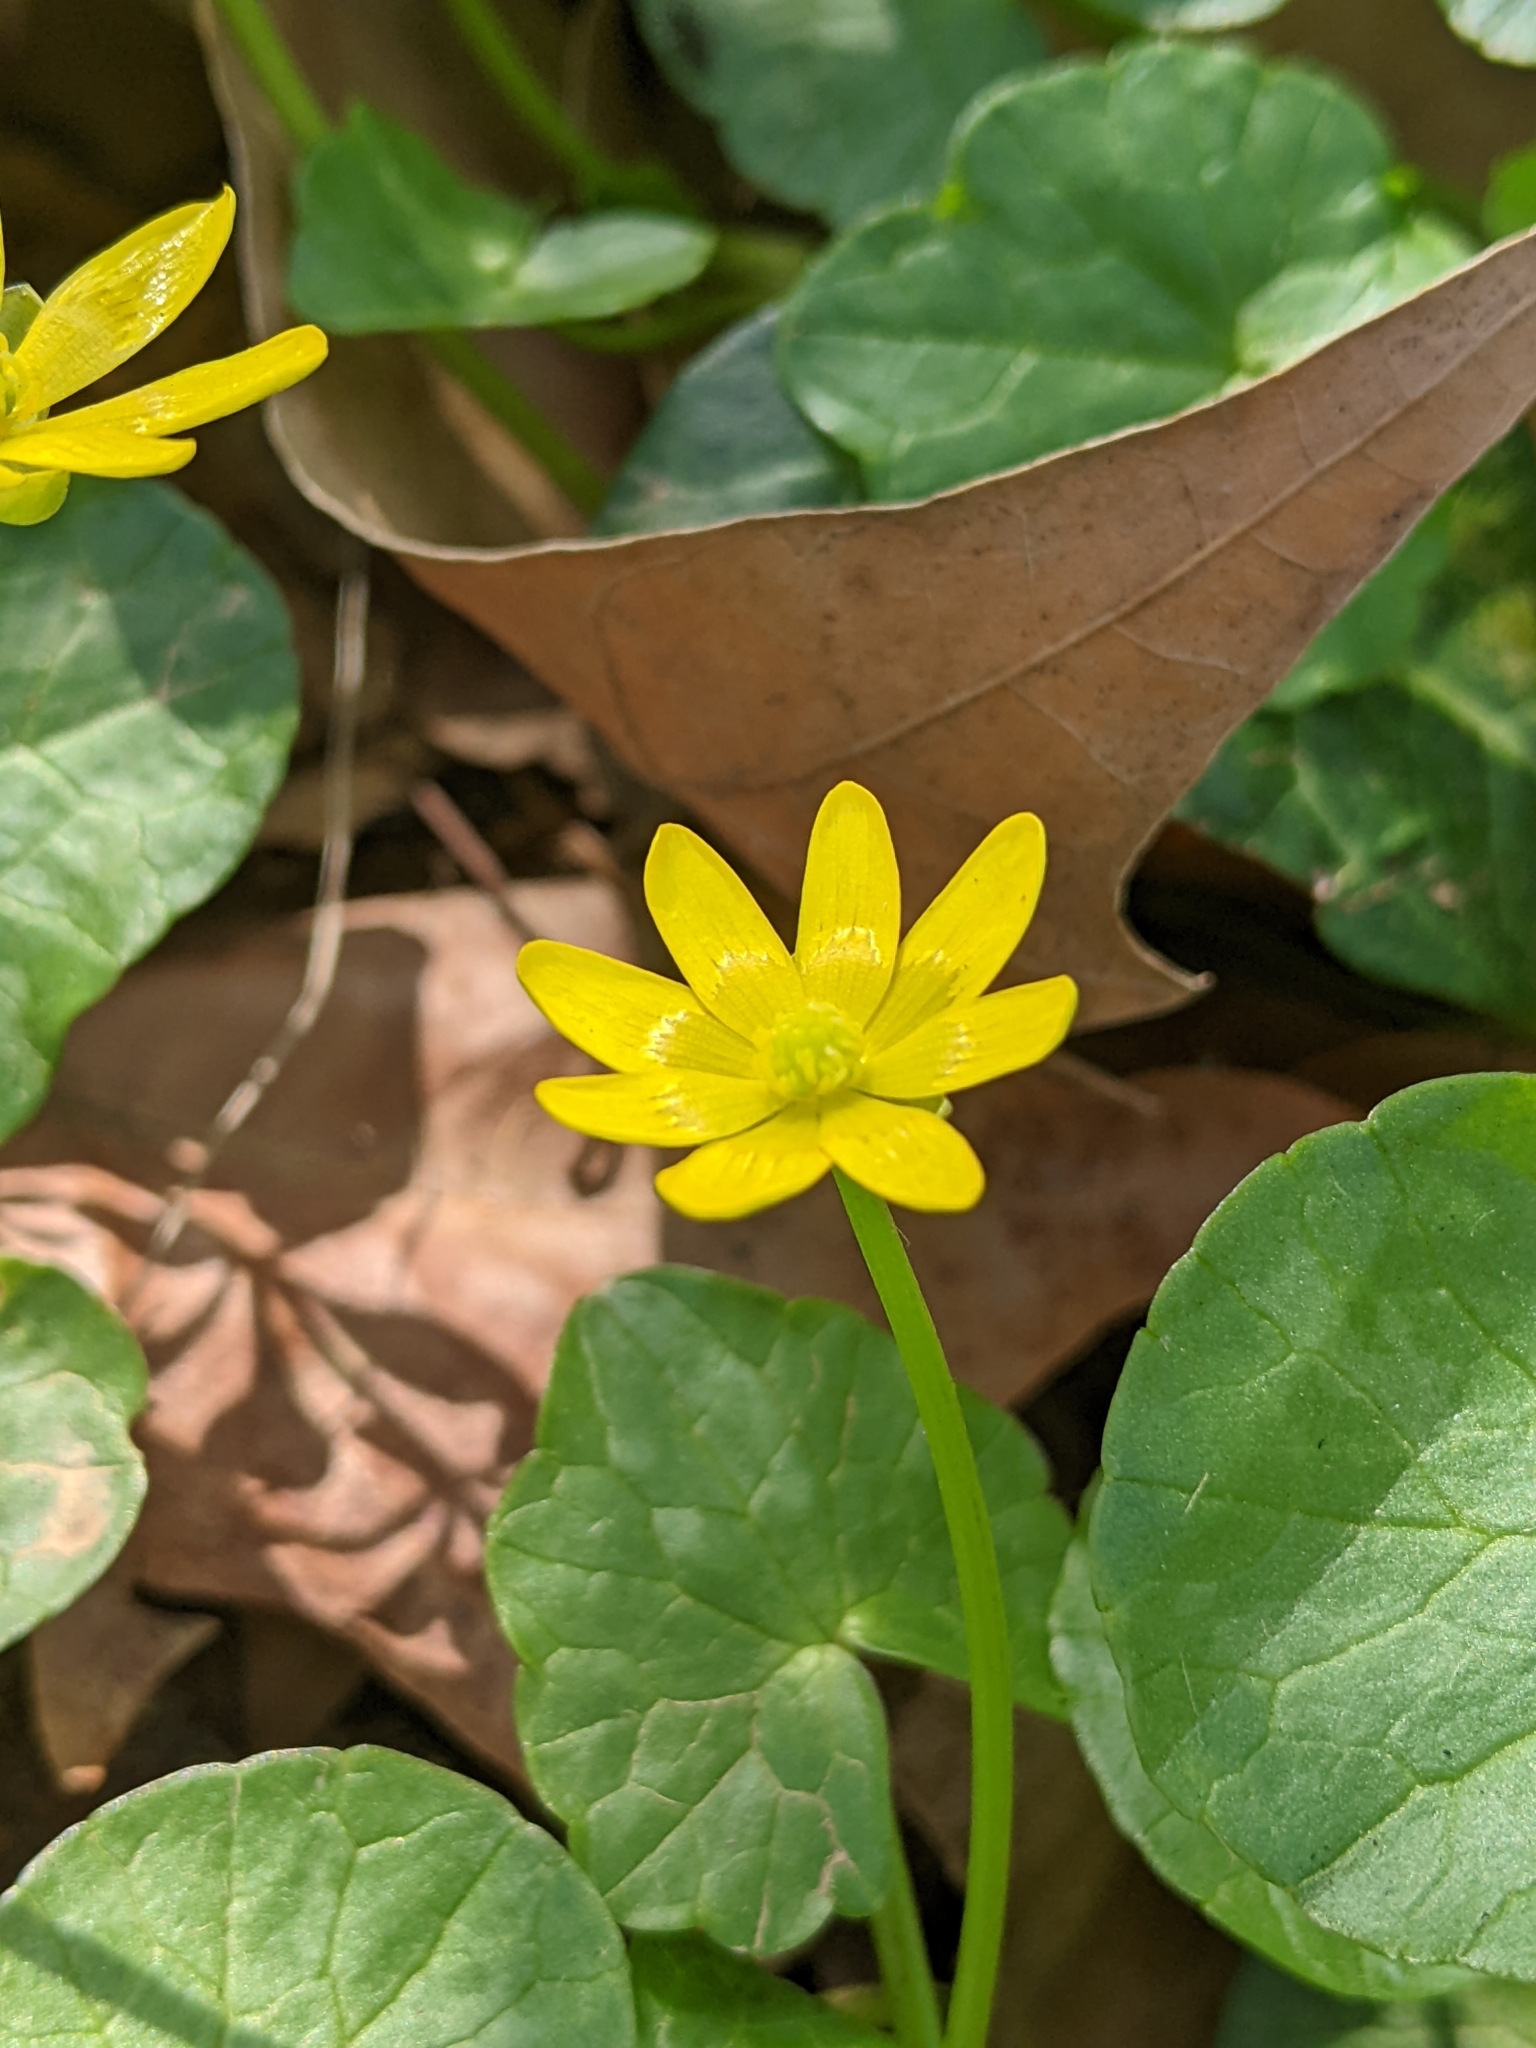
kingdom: Plantae
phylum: Tracheophyta
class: Magnoliopsida
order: Ranunculales
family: Ranunculaceae
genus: Ficaria
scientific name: Ficaria verna
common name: Lesser celandine
